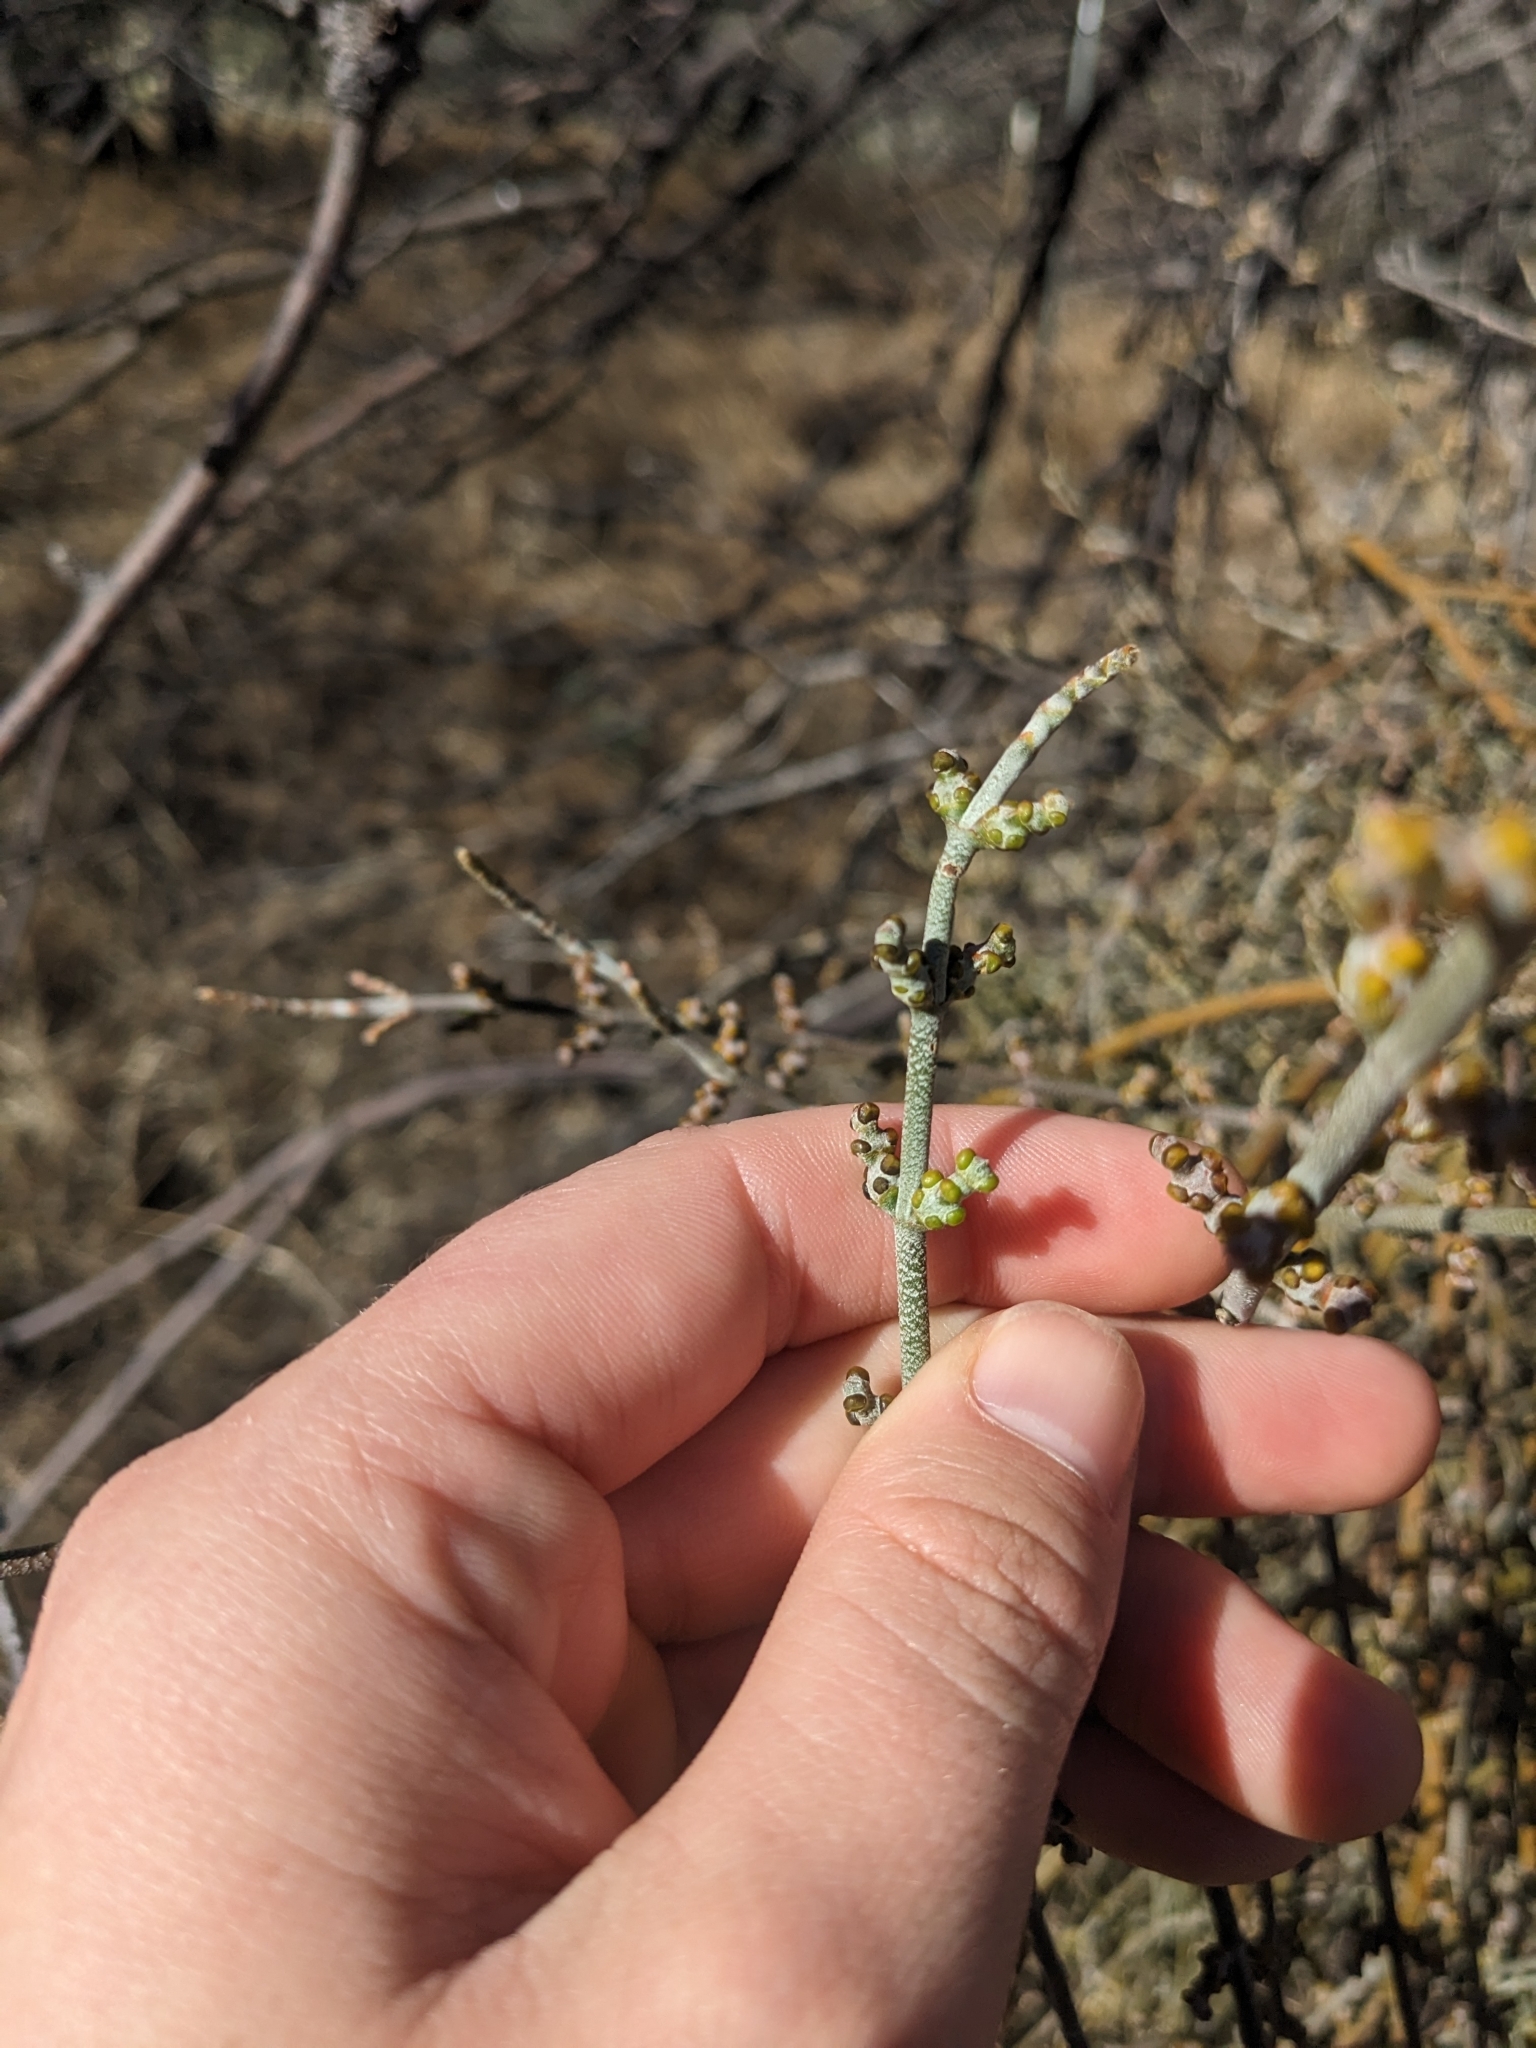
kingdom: Plantae
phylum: Tracheophyta
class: Magnoliopsida
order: Santalales
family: Viscaceae
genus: Phoradendron
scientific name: Phoradendron californicum
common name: Acacia mistletoe
